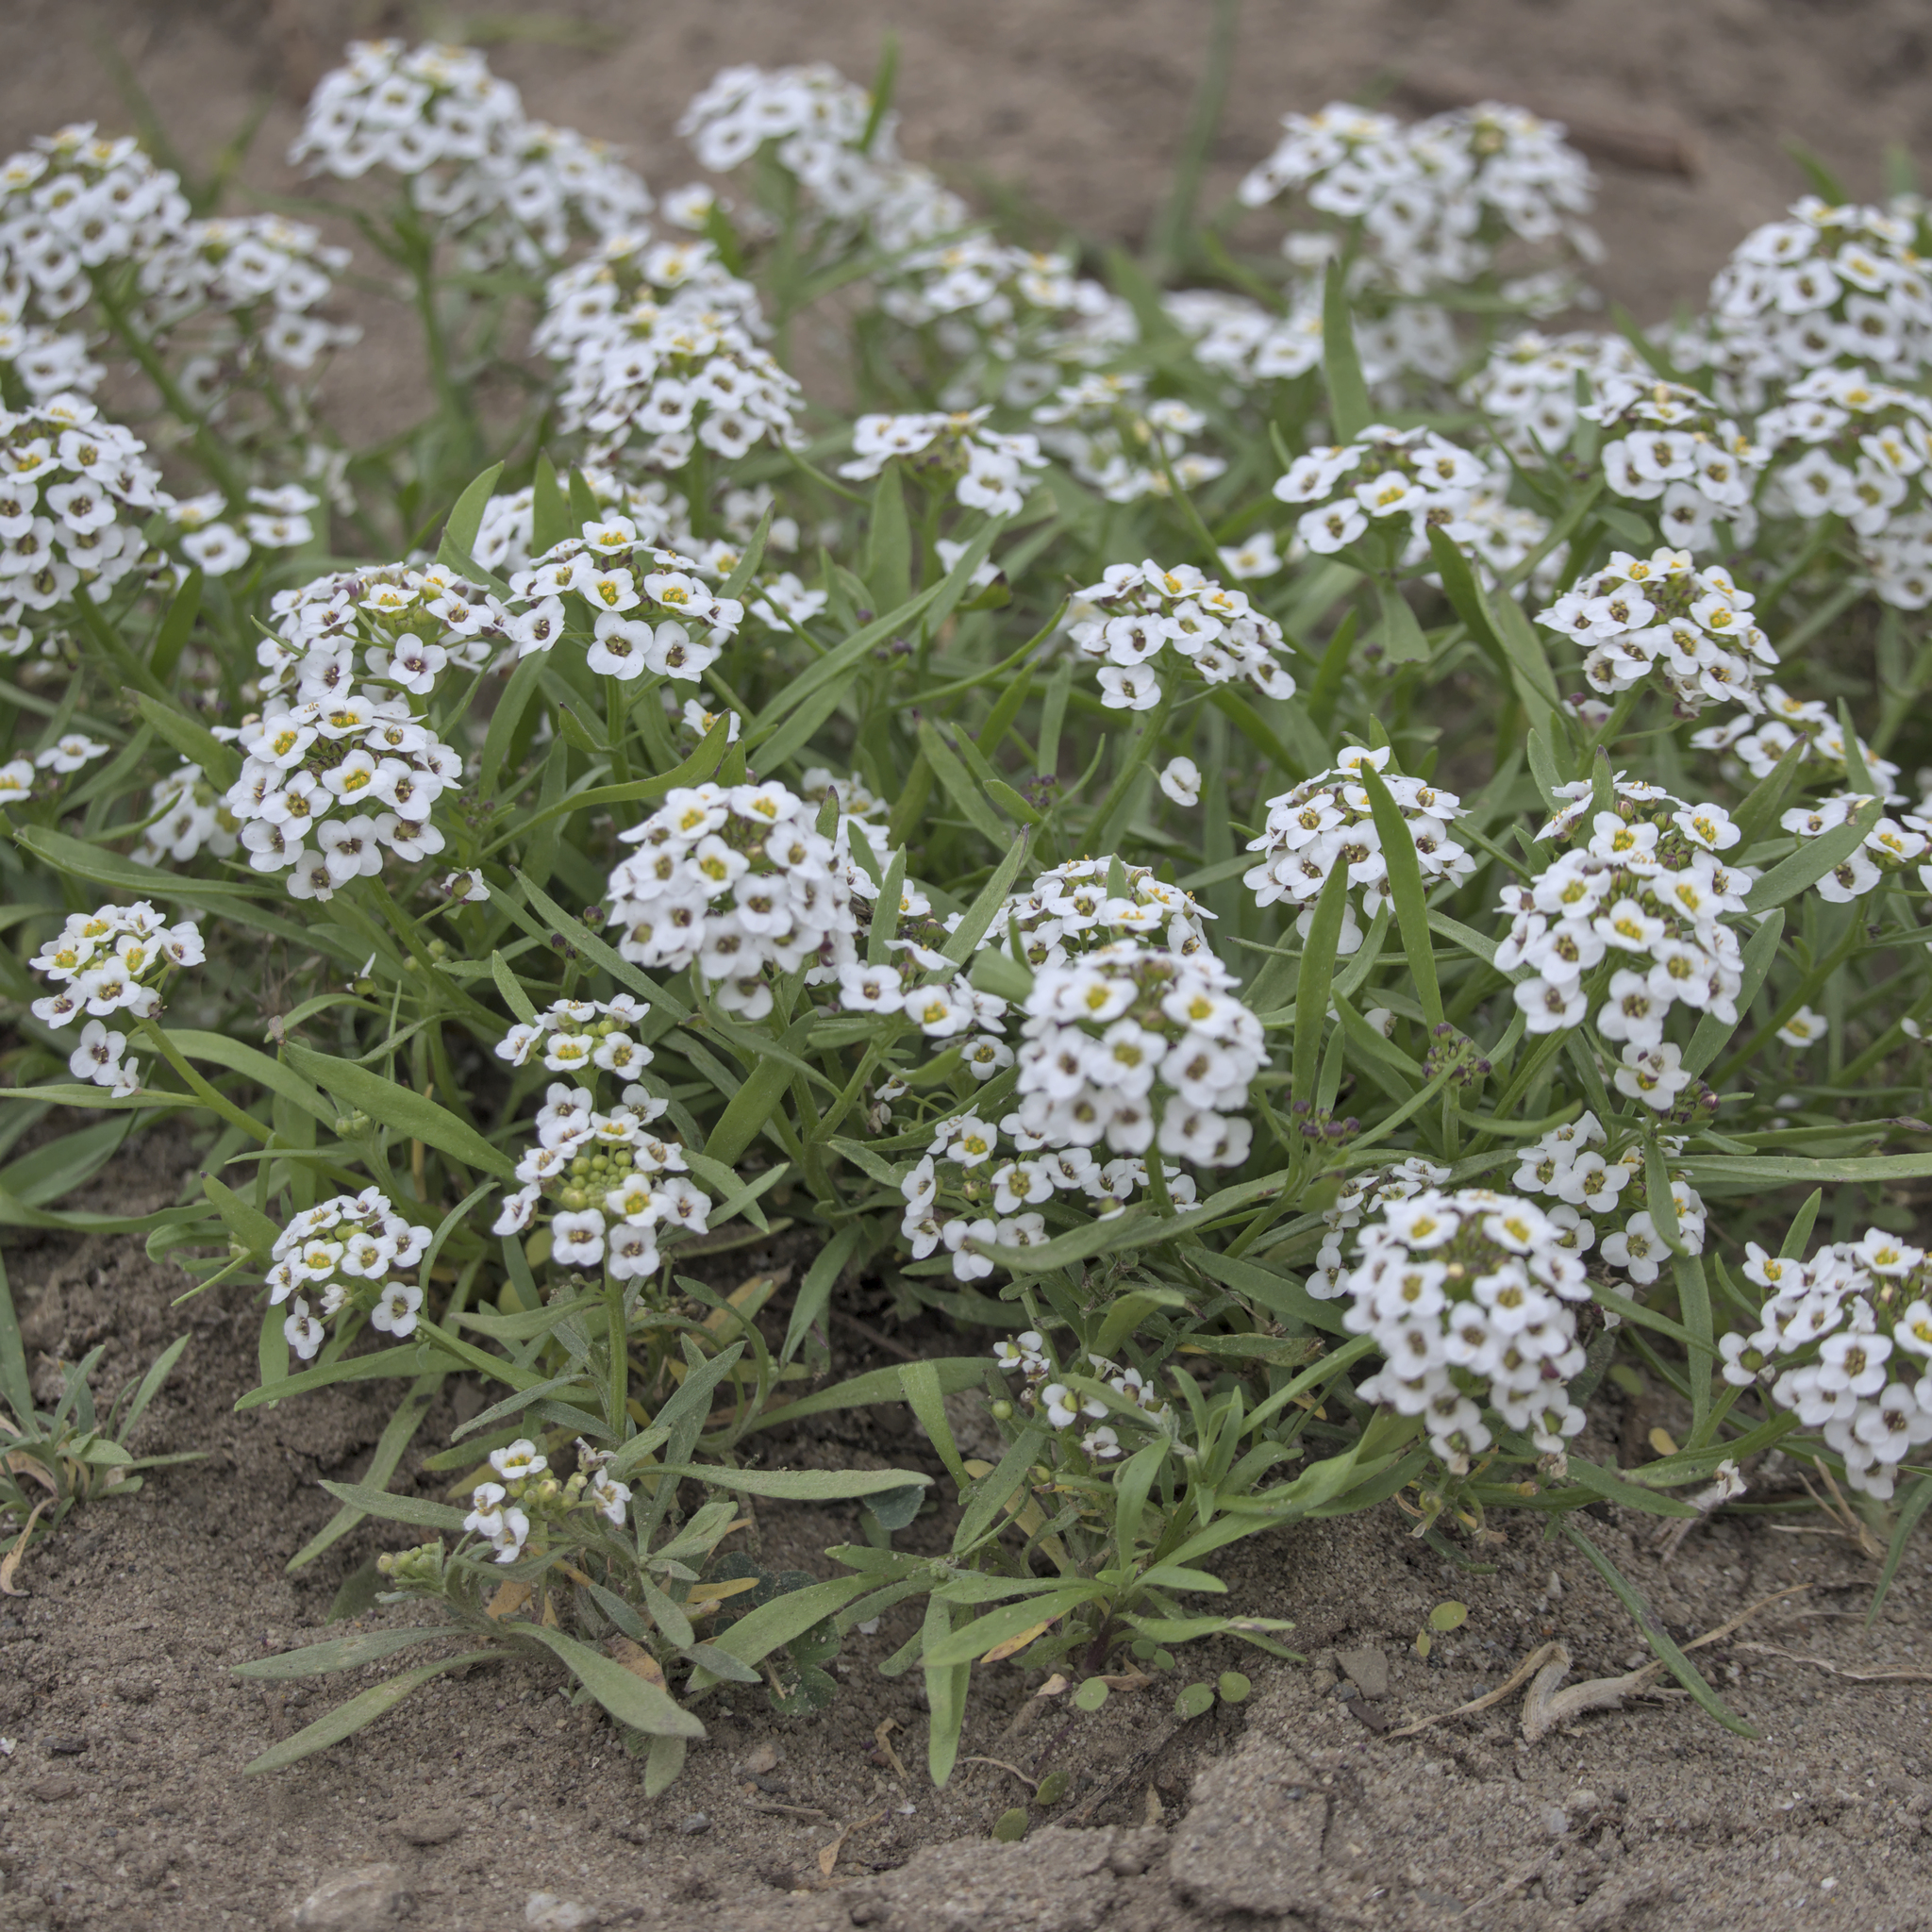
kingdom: Plantae
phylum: Tracheophyta
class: Magnoliopsida
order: Brassicales
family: Brassicaceae
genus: Lobularia
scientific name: Lobularia maritima
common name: Sweet alison
